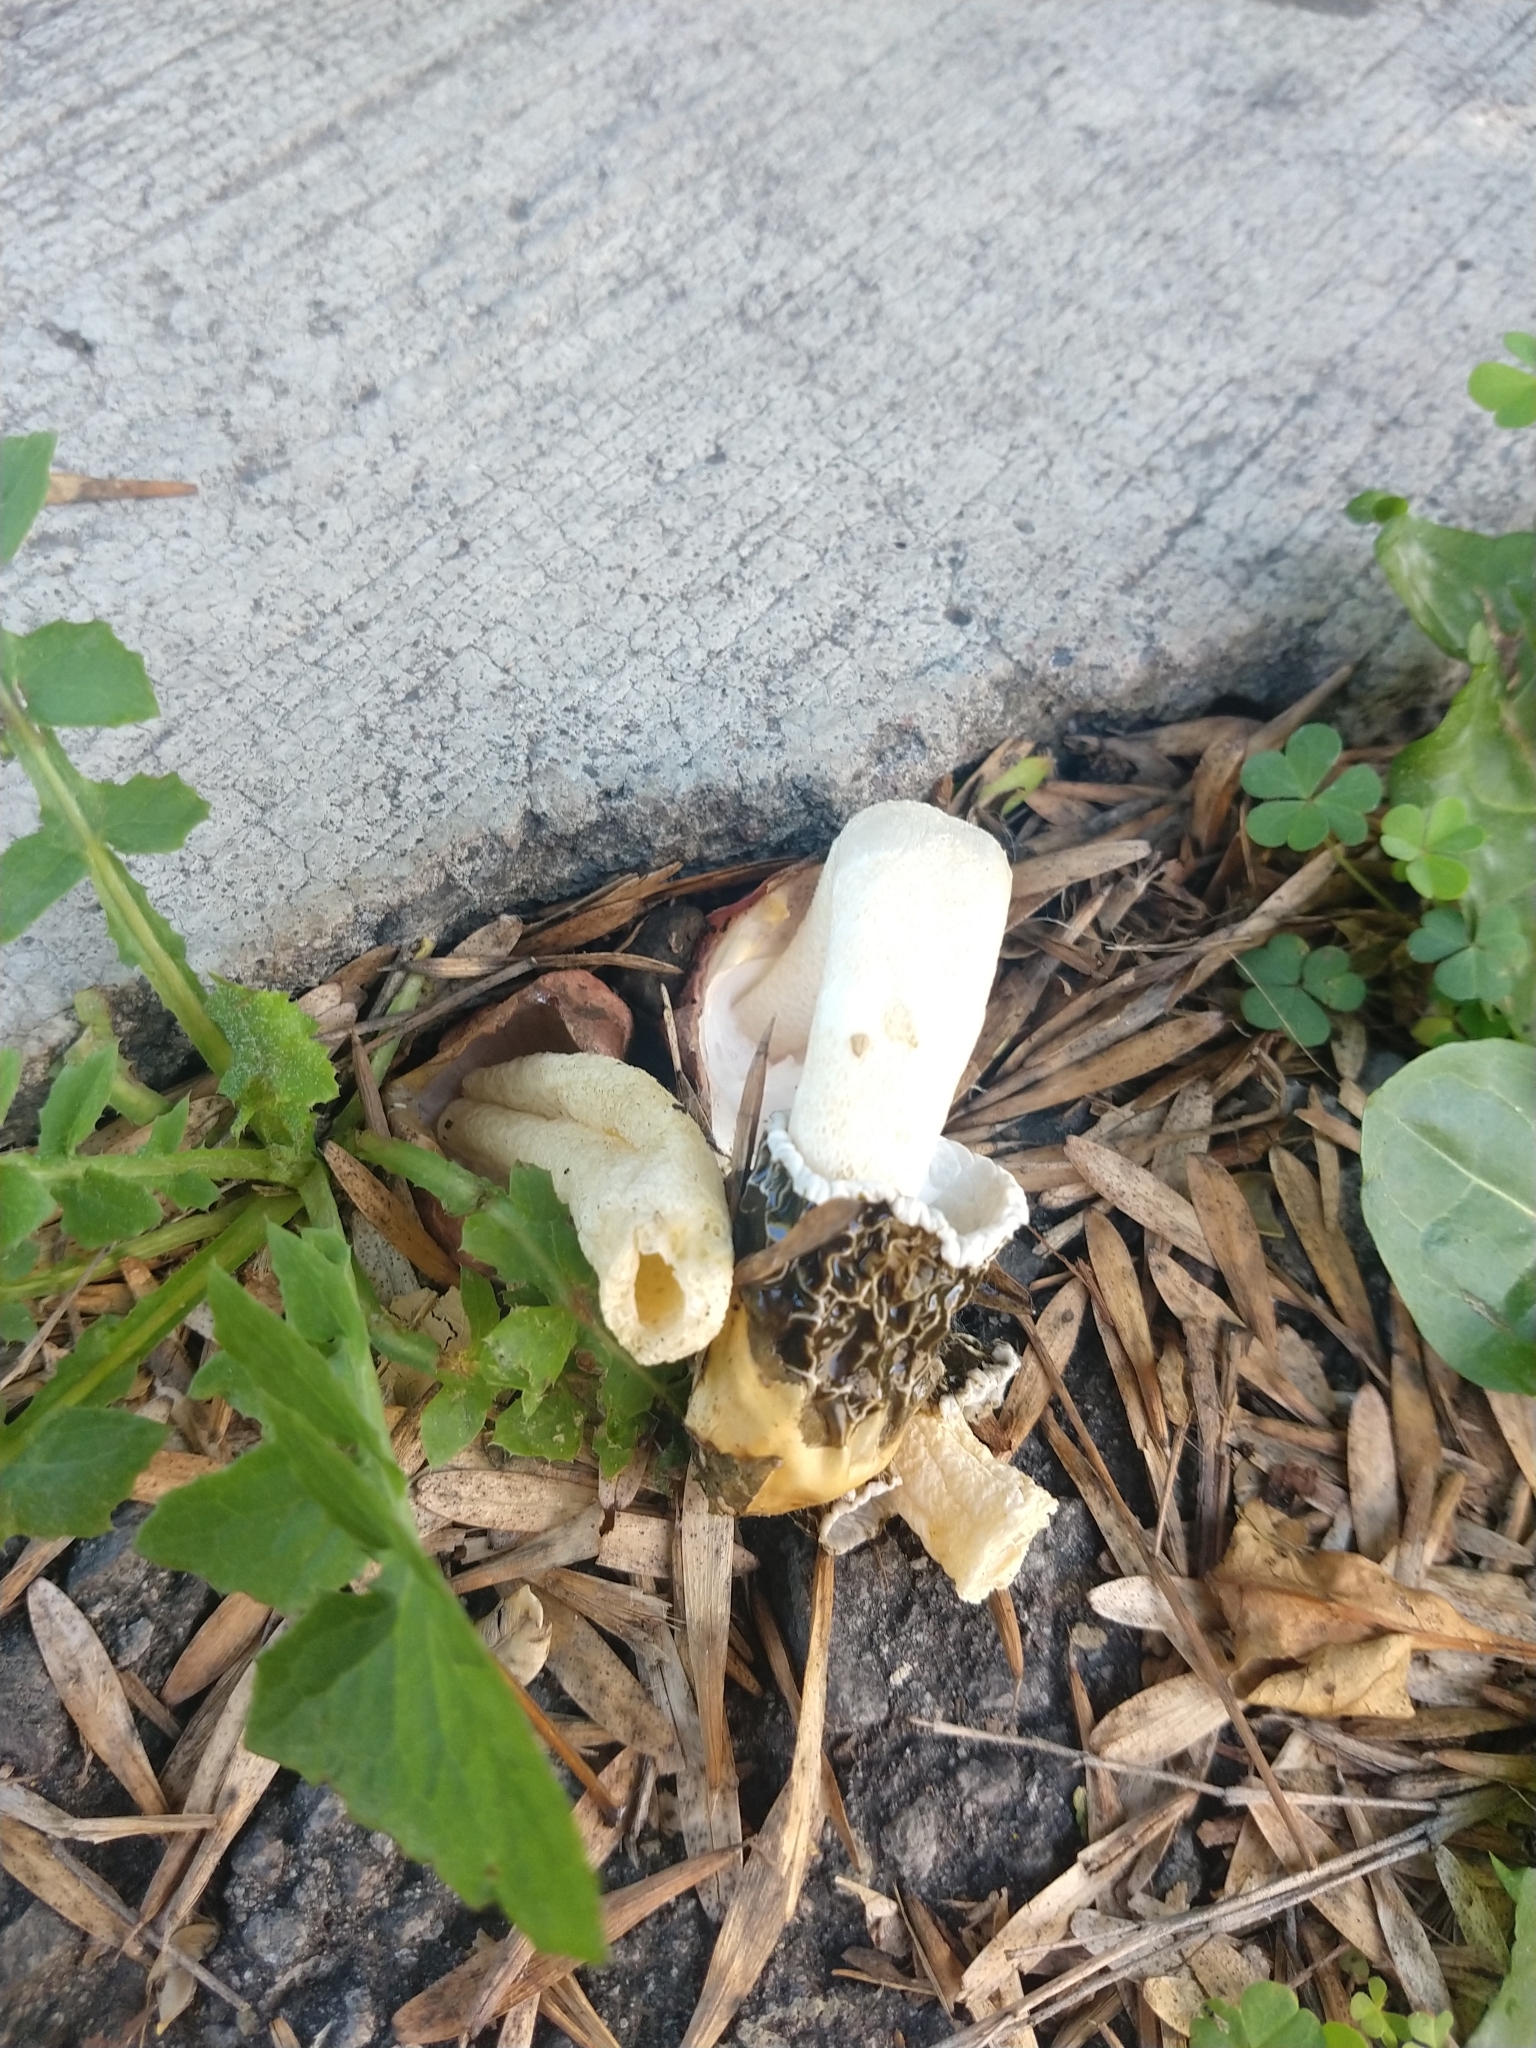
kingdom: Fungi
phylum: Basidiomycota
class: Agaricomycetes
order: Phallales
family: Phallaceae
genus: Phallus
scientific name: Phallus hadriani
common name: Sand stinkhorn
